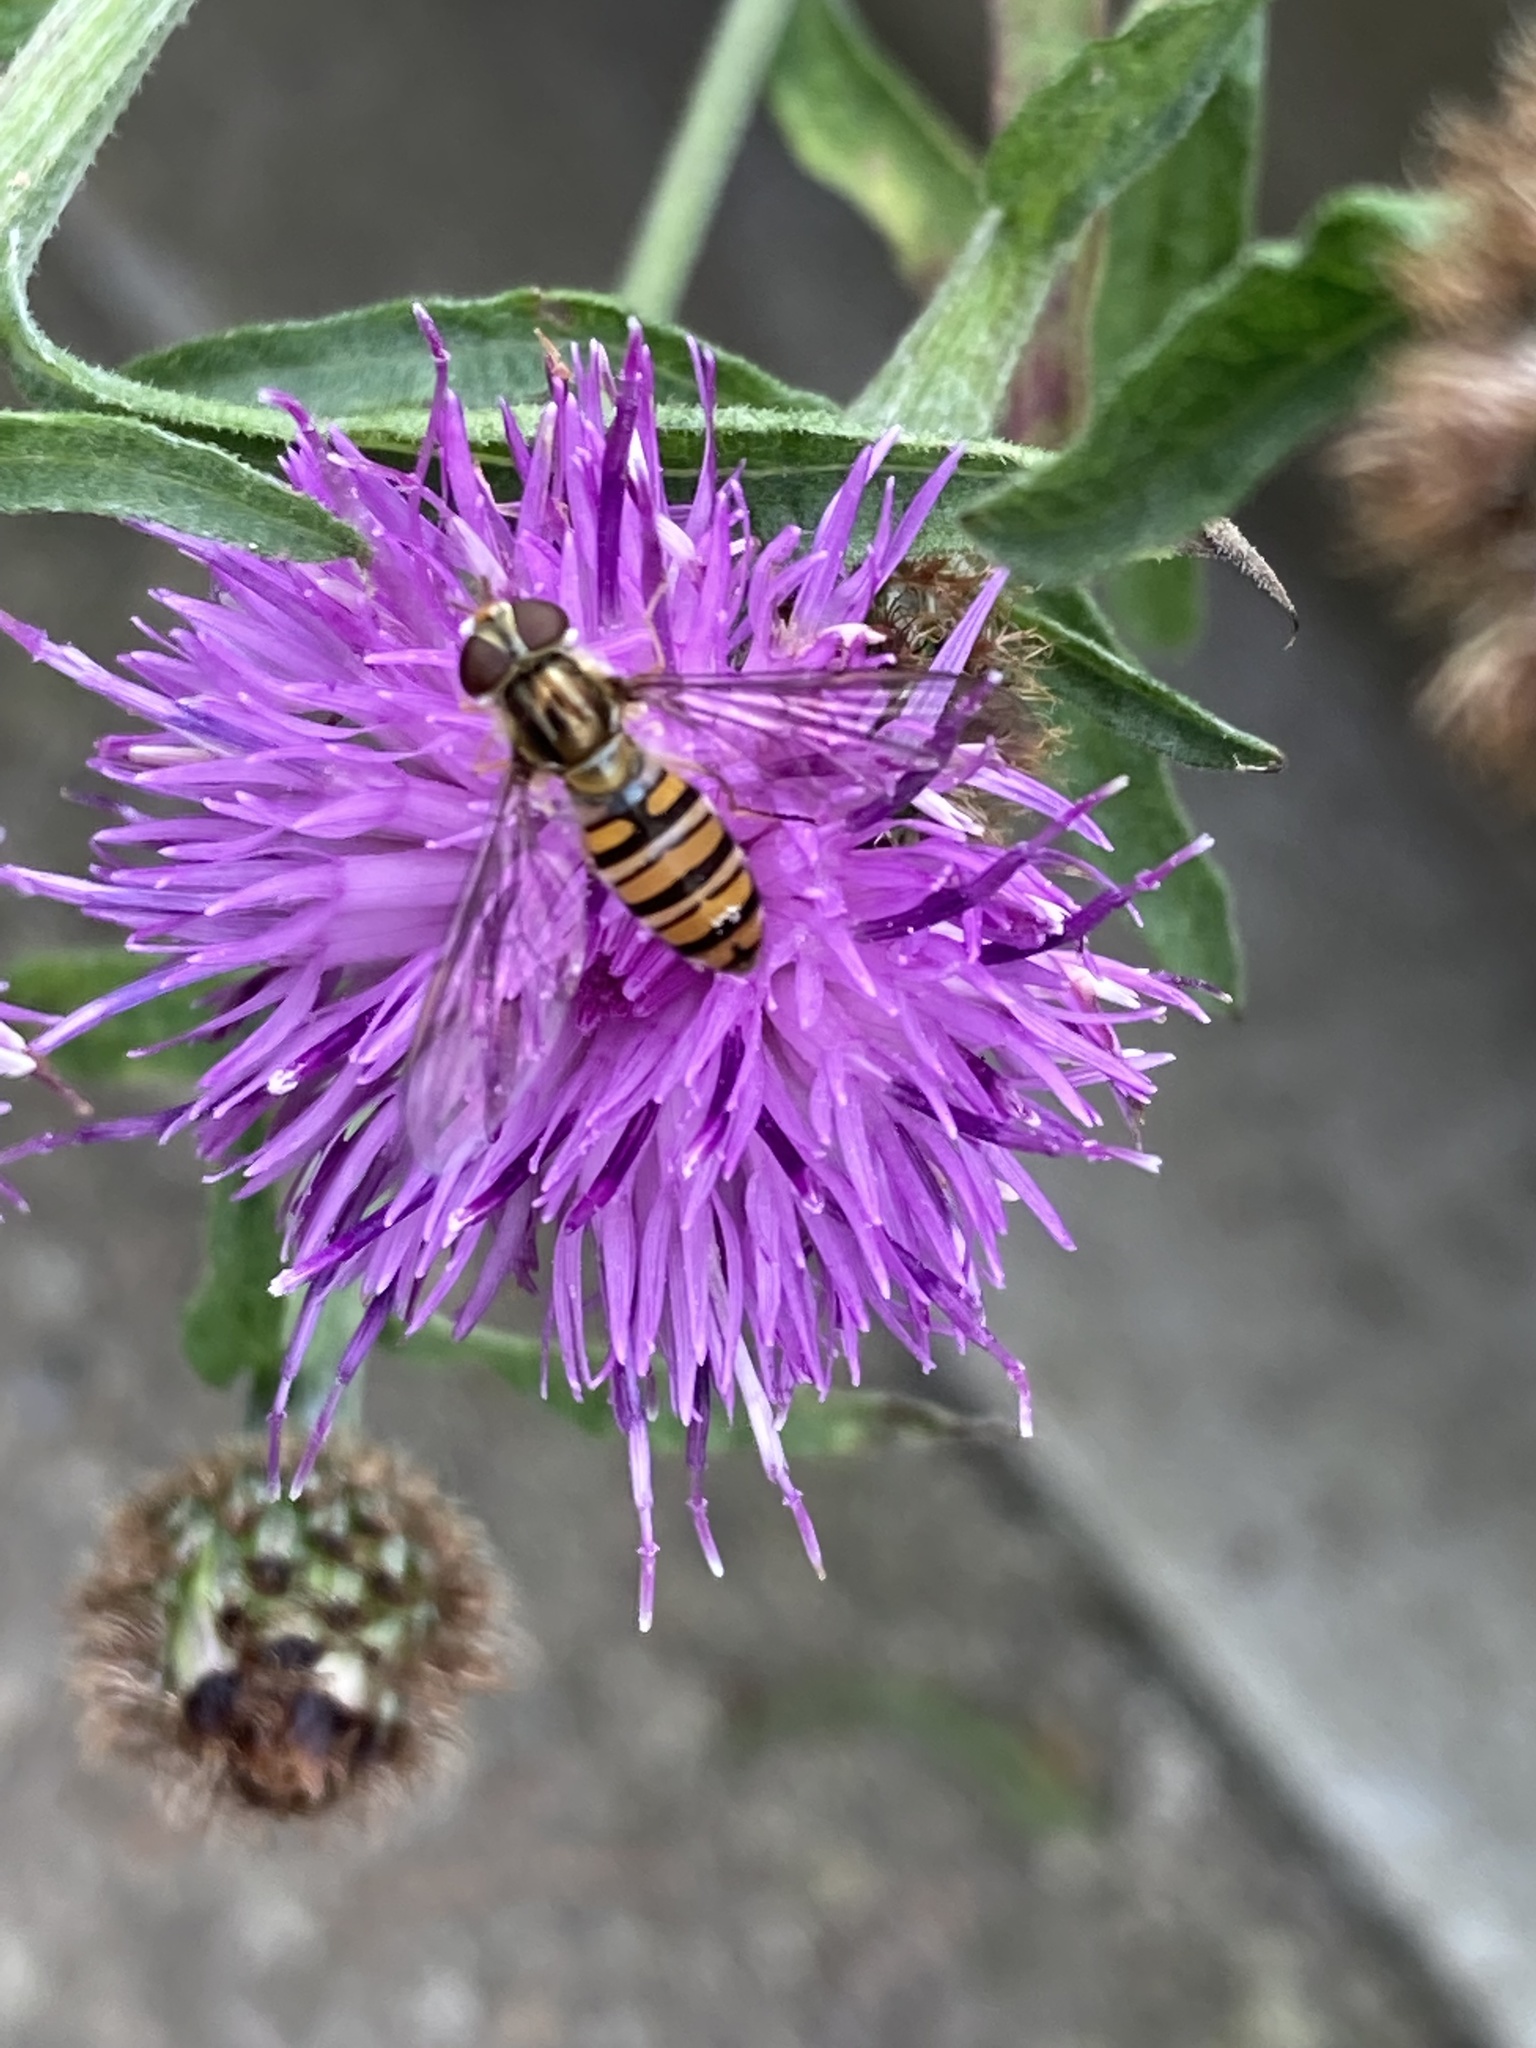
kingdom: Animalia
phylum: Arthropoda
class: Insecta
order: Diptera
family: Syrphidae
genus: Episyrphus
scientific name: Episyrphus balteatus
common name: Marmalade hoverfly
